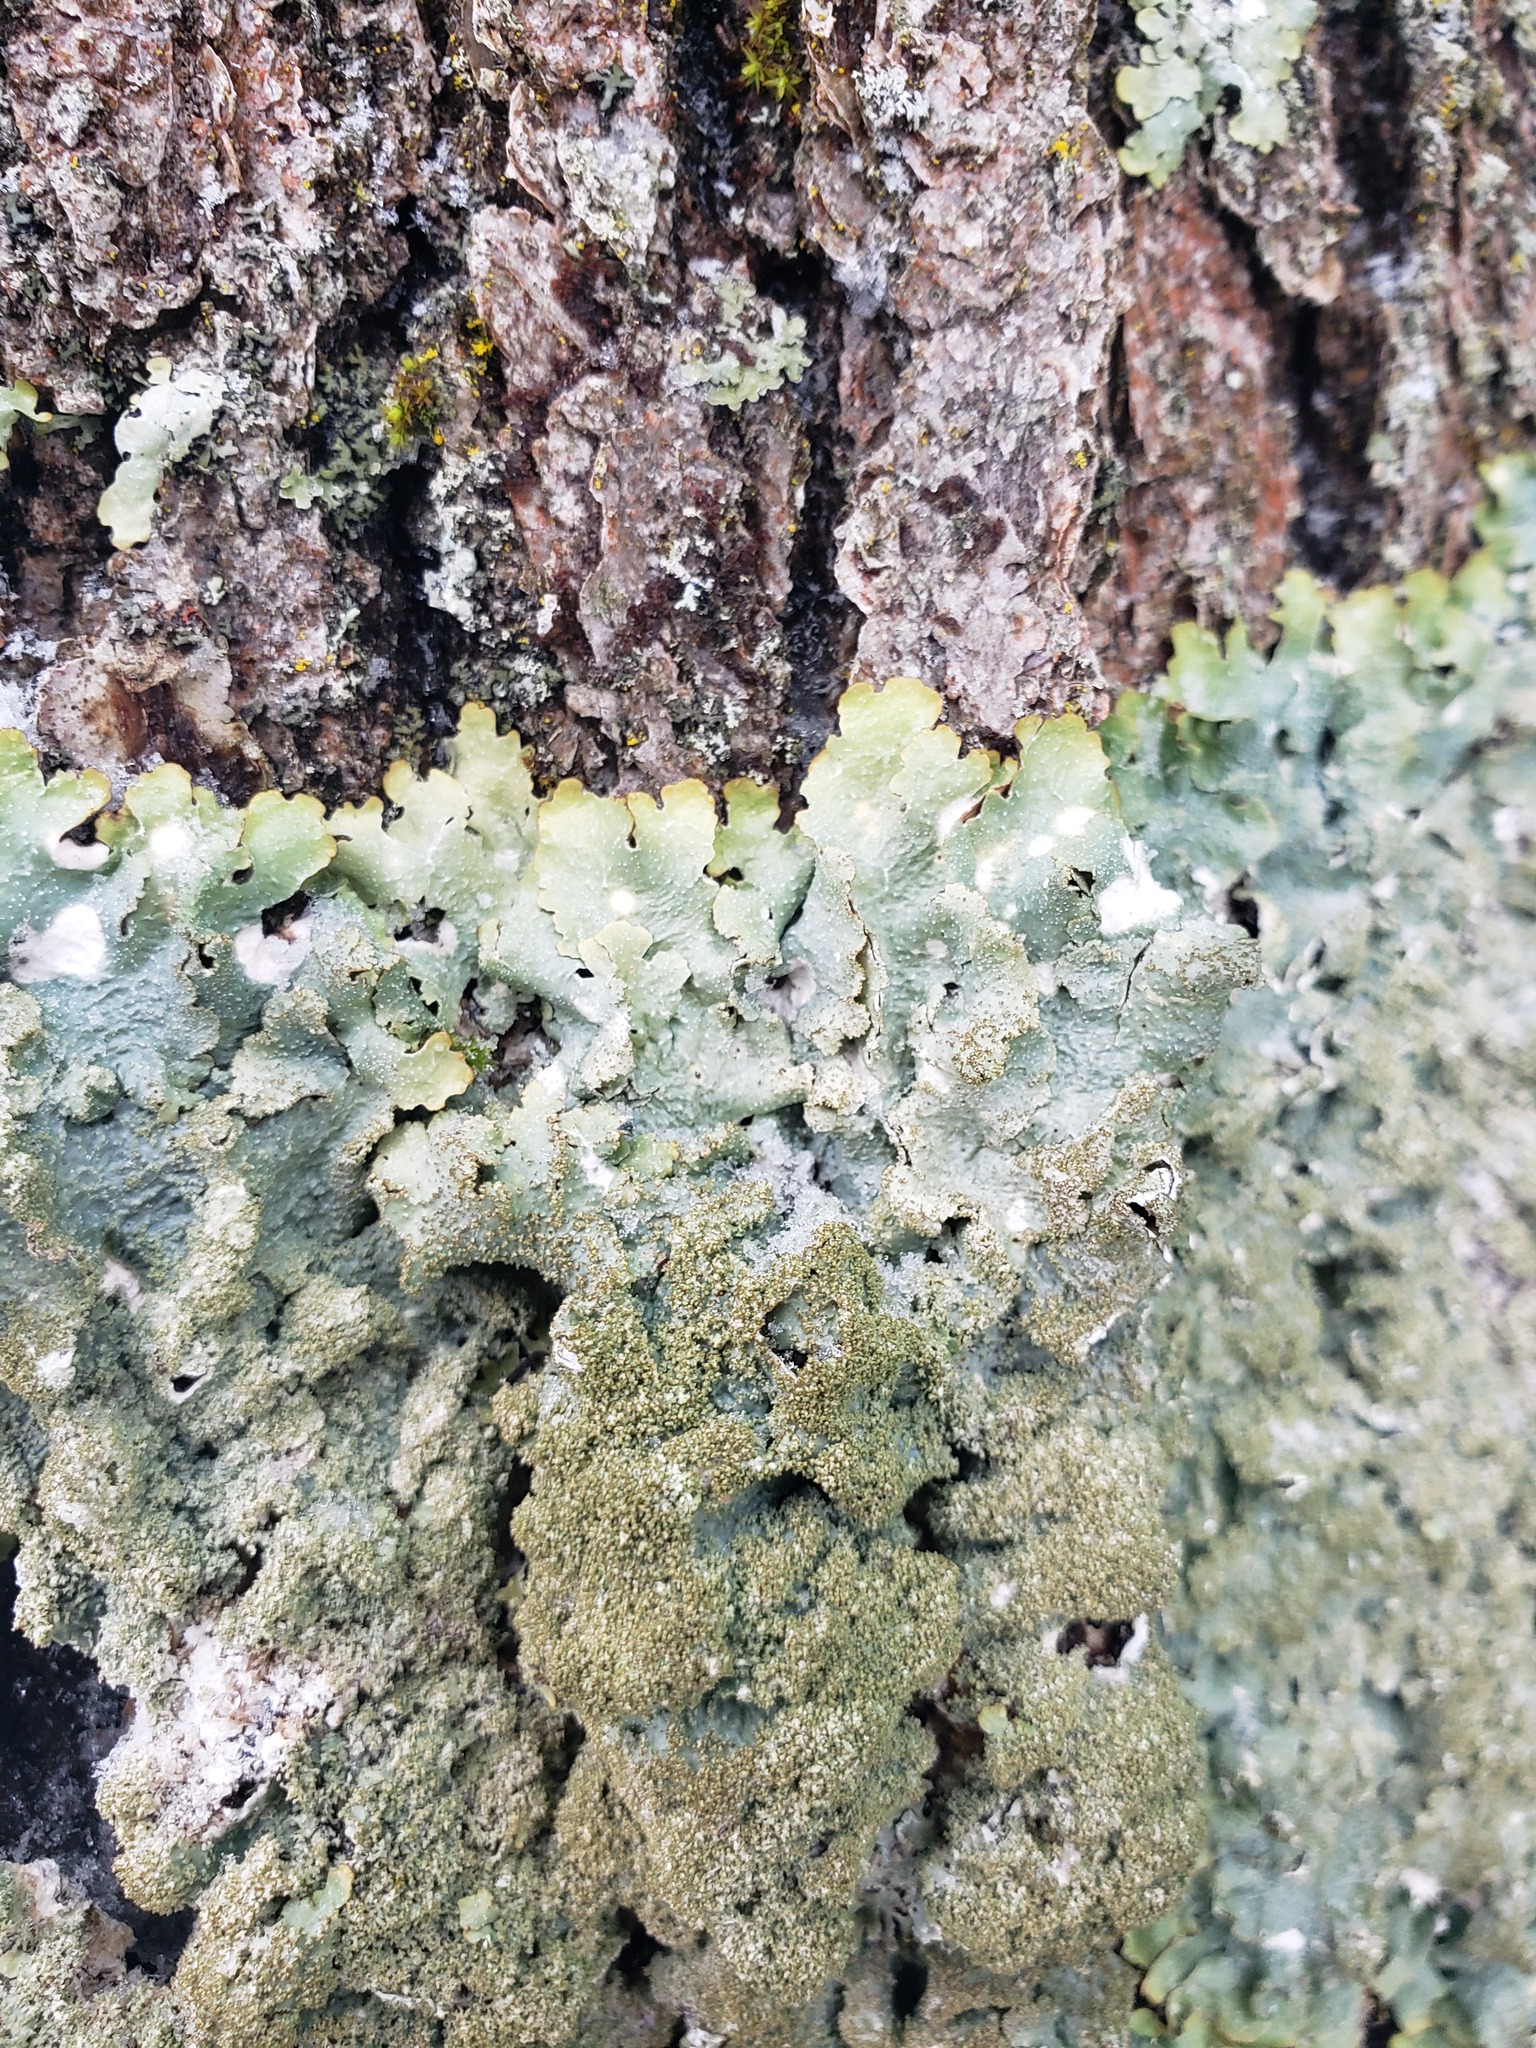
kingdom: Fungi
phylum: Ascomycota
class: Lecanoromycetes
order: Lecanorales
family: Parmeliaceae
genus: Punctelia
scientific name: Punctelia rudecta
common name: Rough speckled shield lichen
